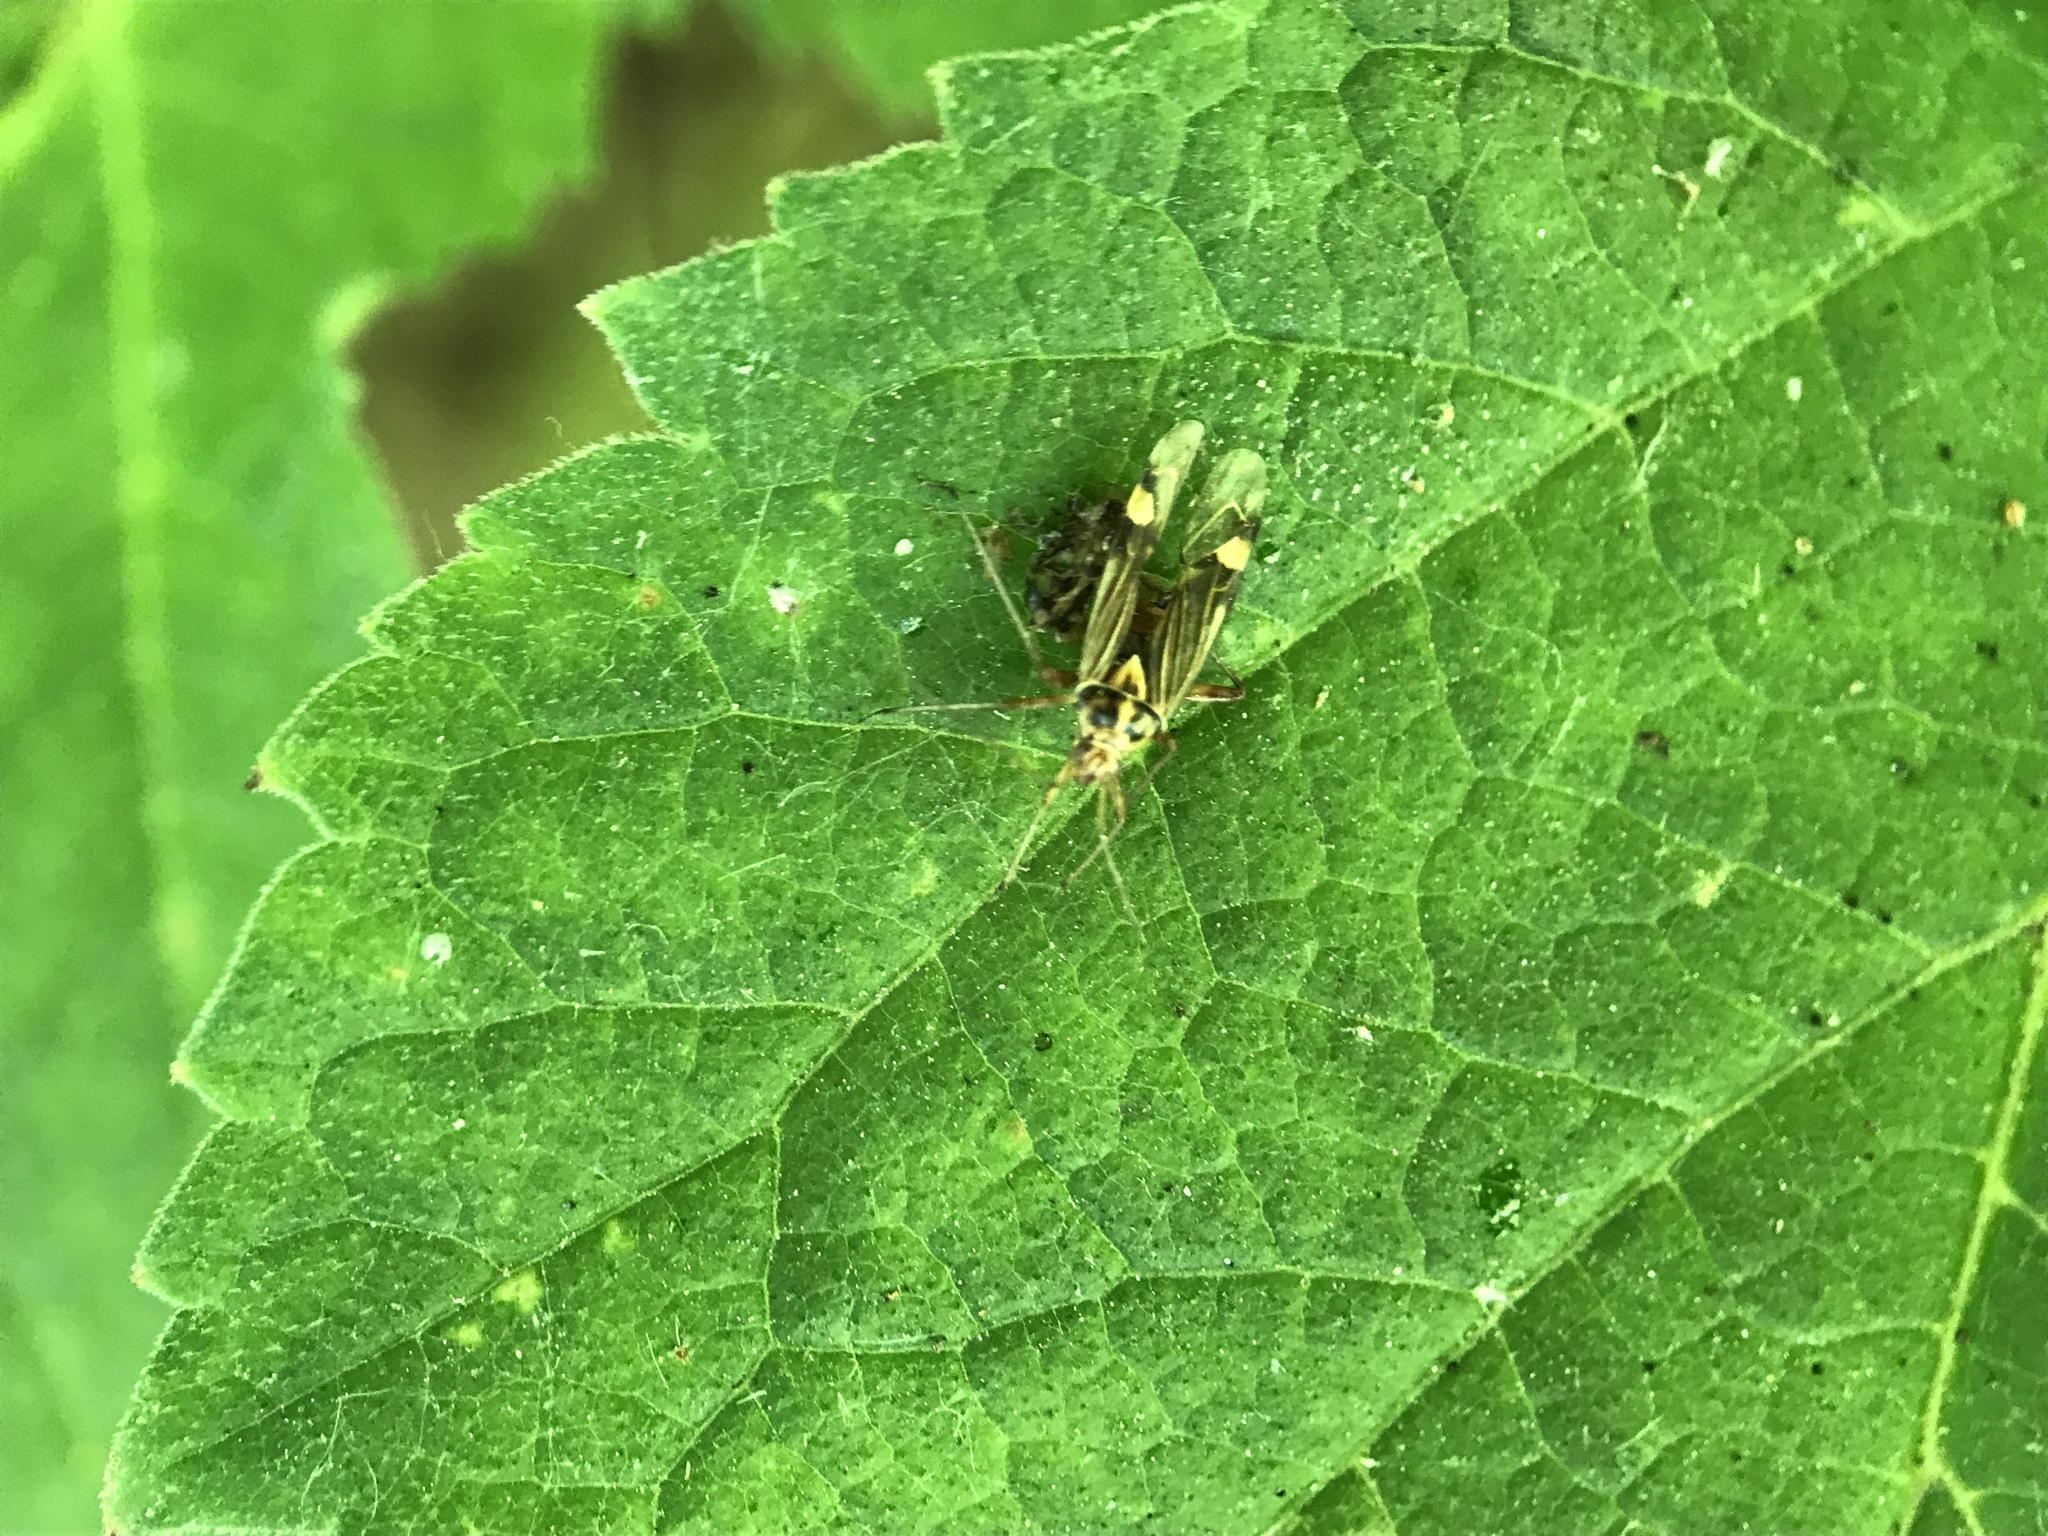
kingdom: Animalia
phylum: Arthropoda
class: Insecta
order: Hemiptera
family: Miridae
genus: Rhabdomiris
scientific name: Rhabdomiris striatellus
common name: Plant bug
